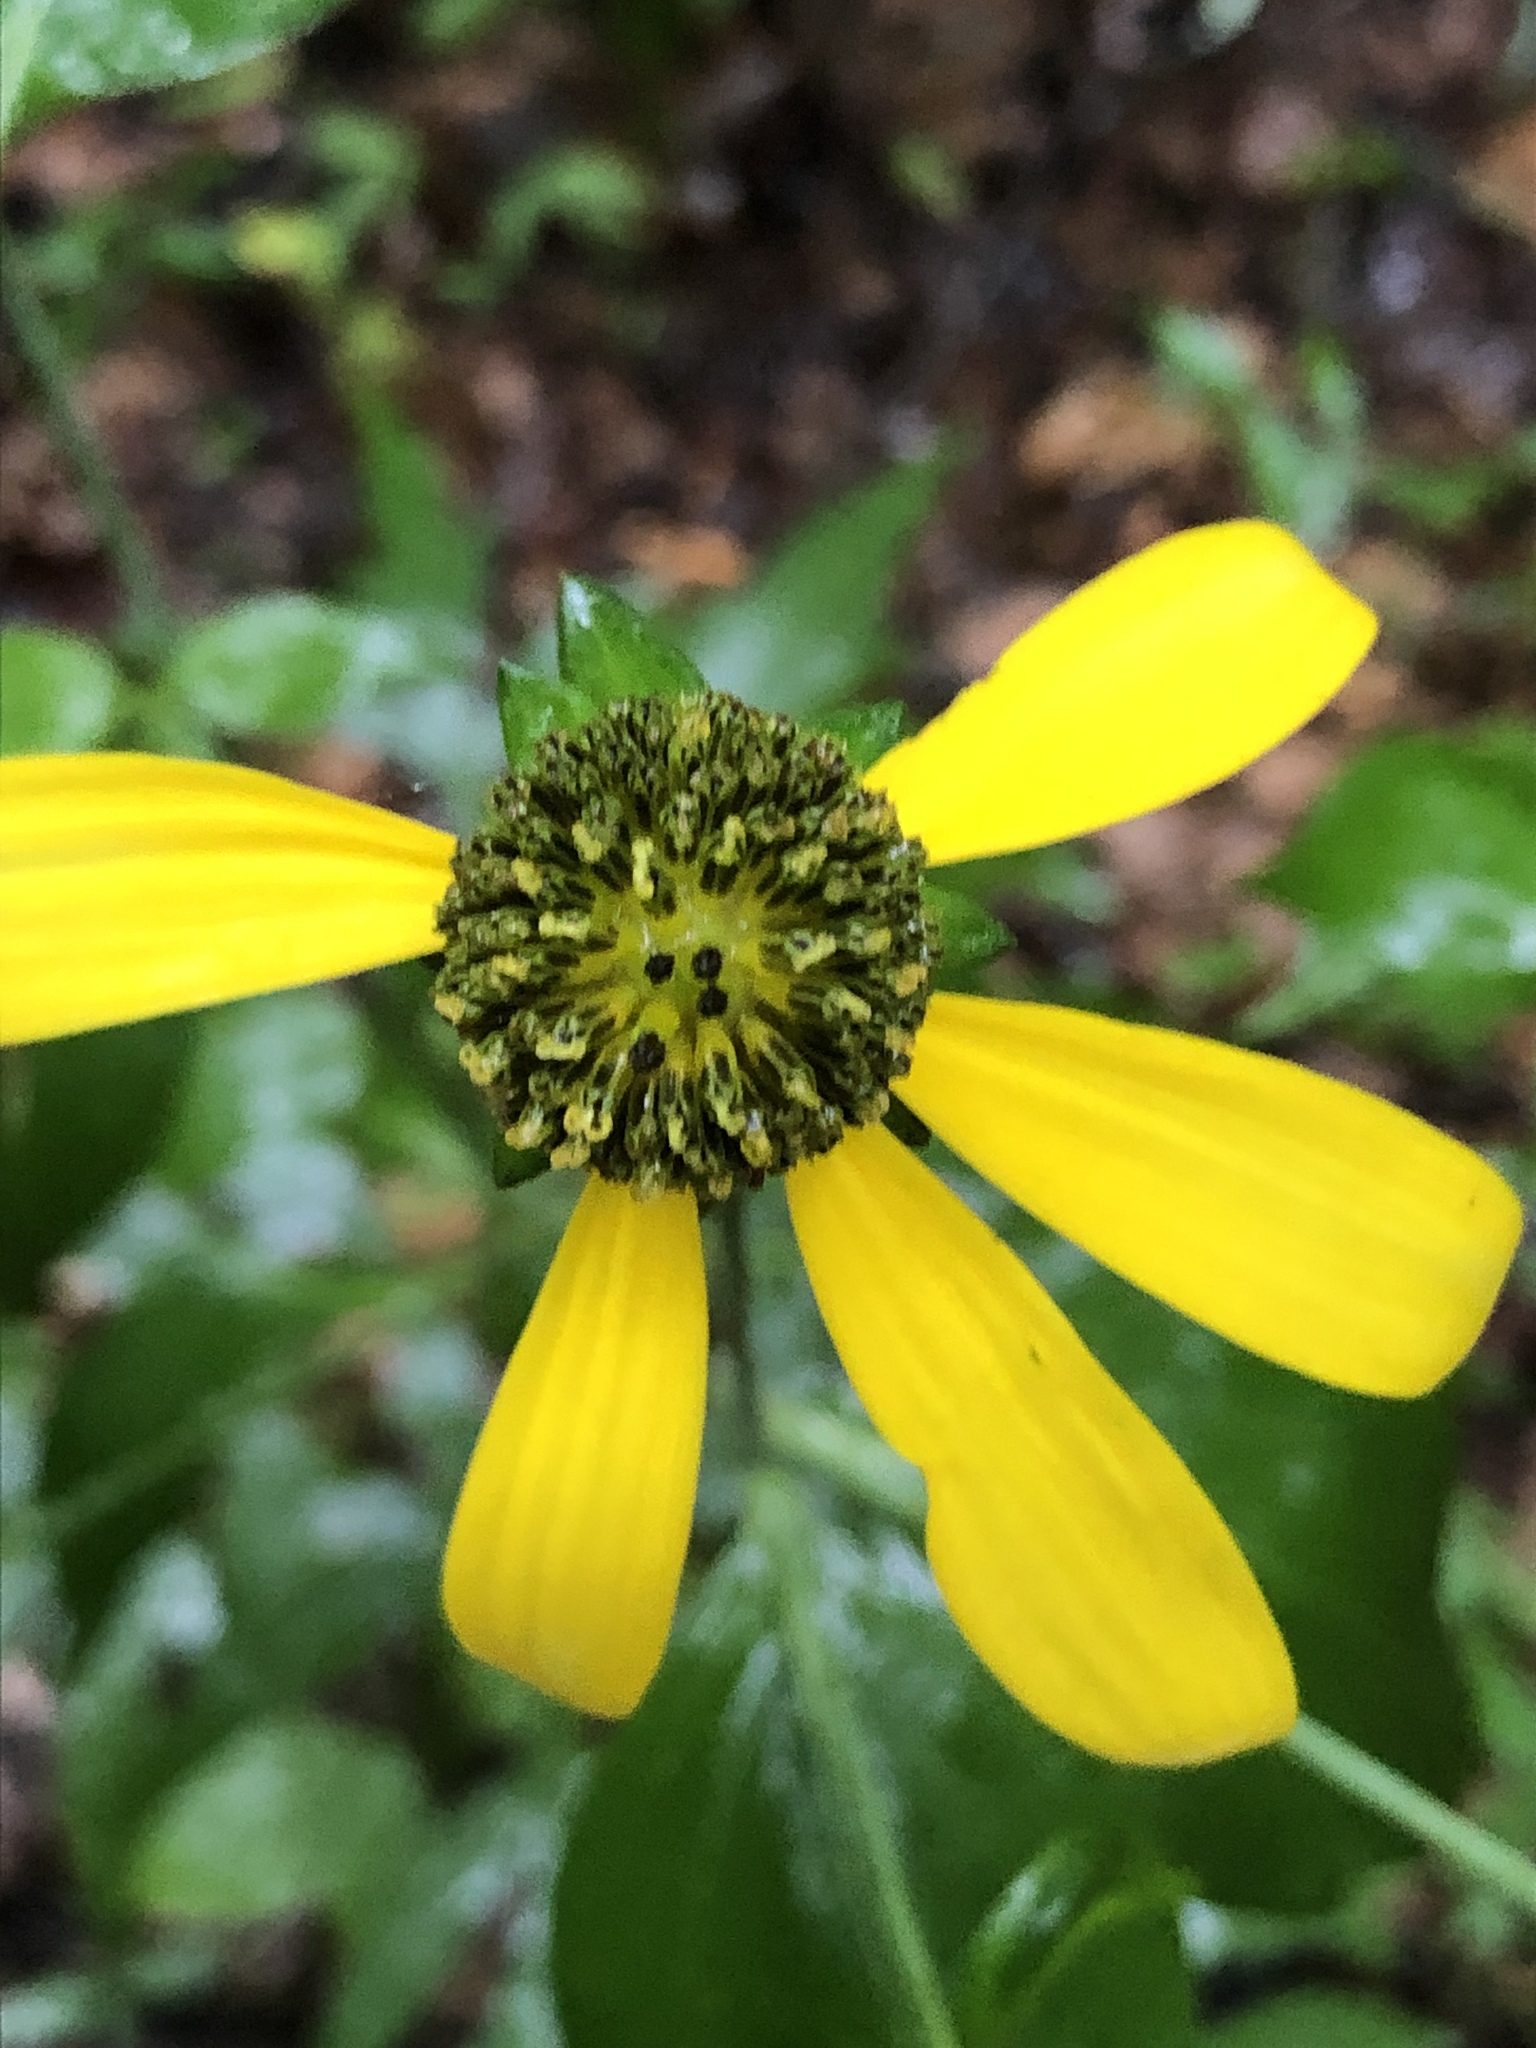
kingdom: Plantae
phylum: Tracheophyta
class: Magnoliopsida
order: Asterales
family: Asteraceae
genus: Rudbeckia
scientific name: Rudbeckia laciniata
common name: Coneflower
